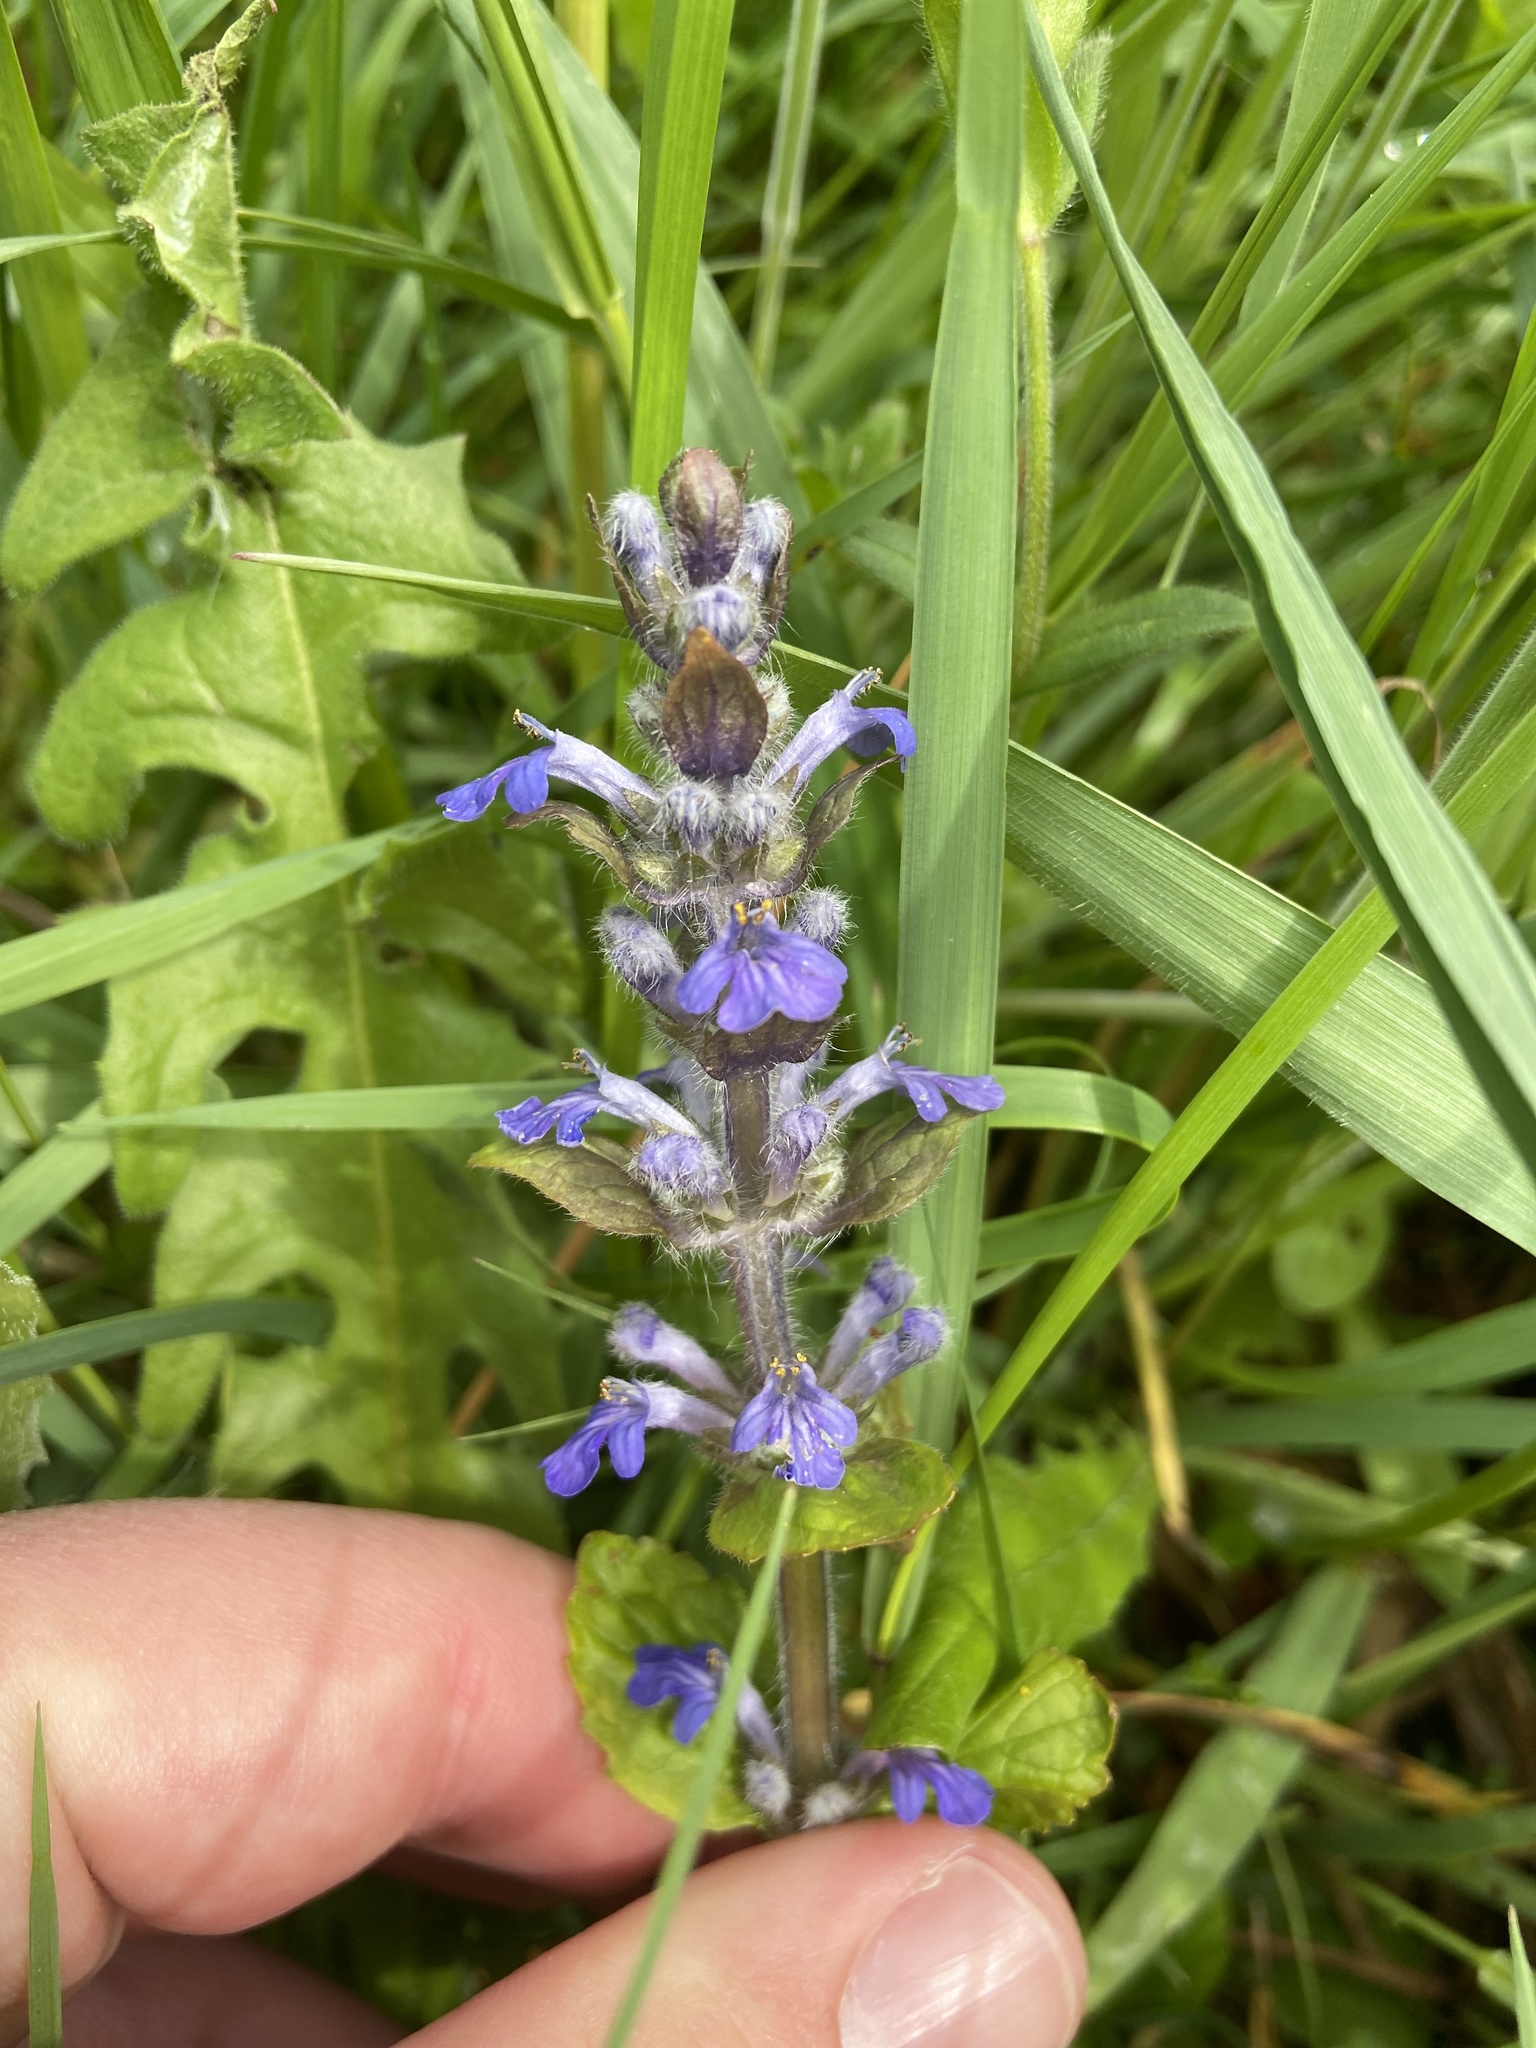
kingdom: Plantae
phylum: Tracheophyta
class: Magnoliopsida
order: Lamiales
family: Lamiaceae
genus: Ajuga
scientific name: Ajuga reptans
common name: Bugle
